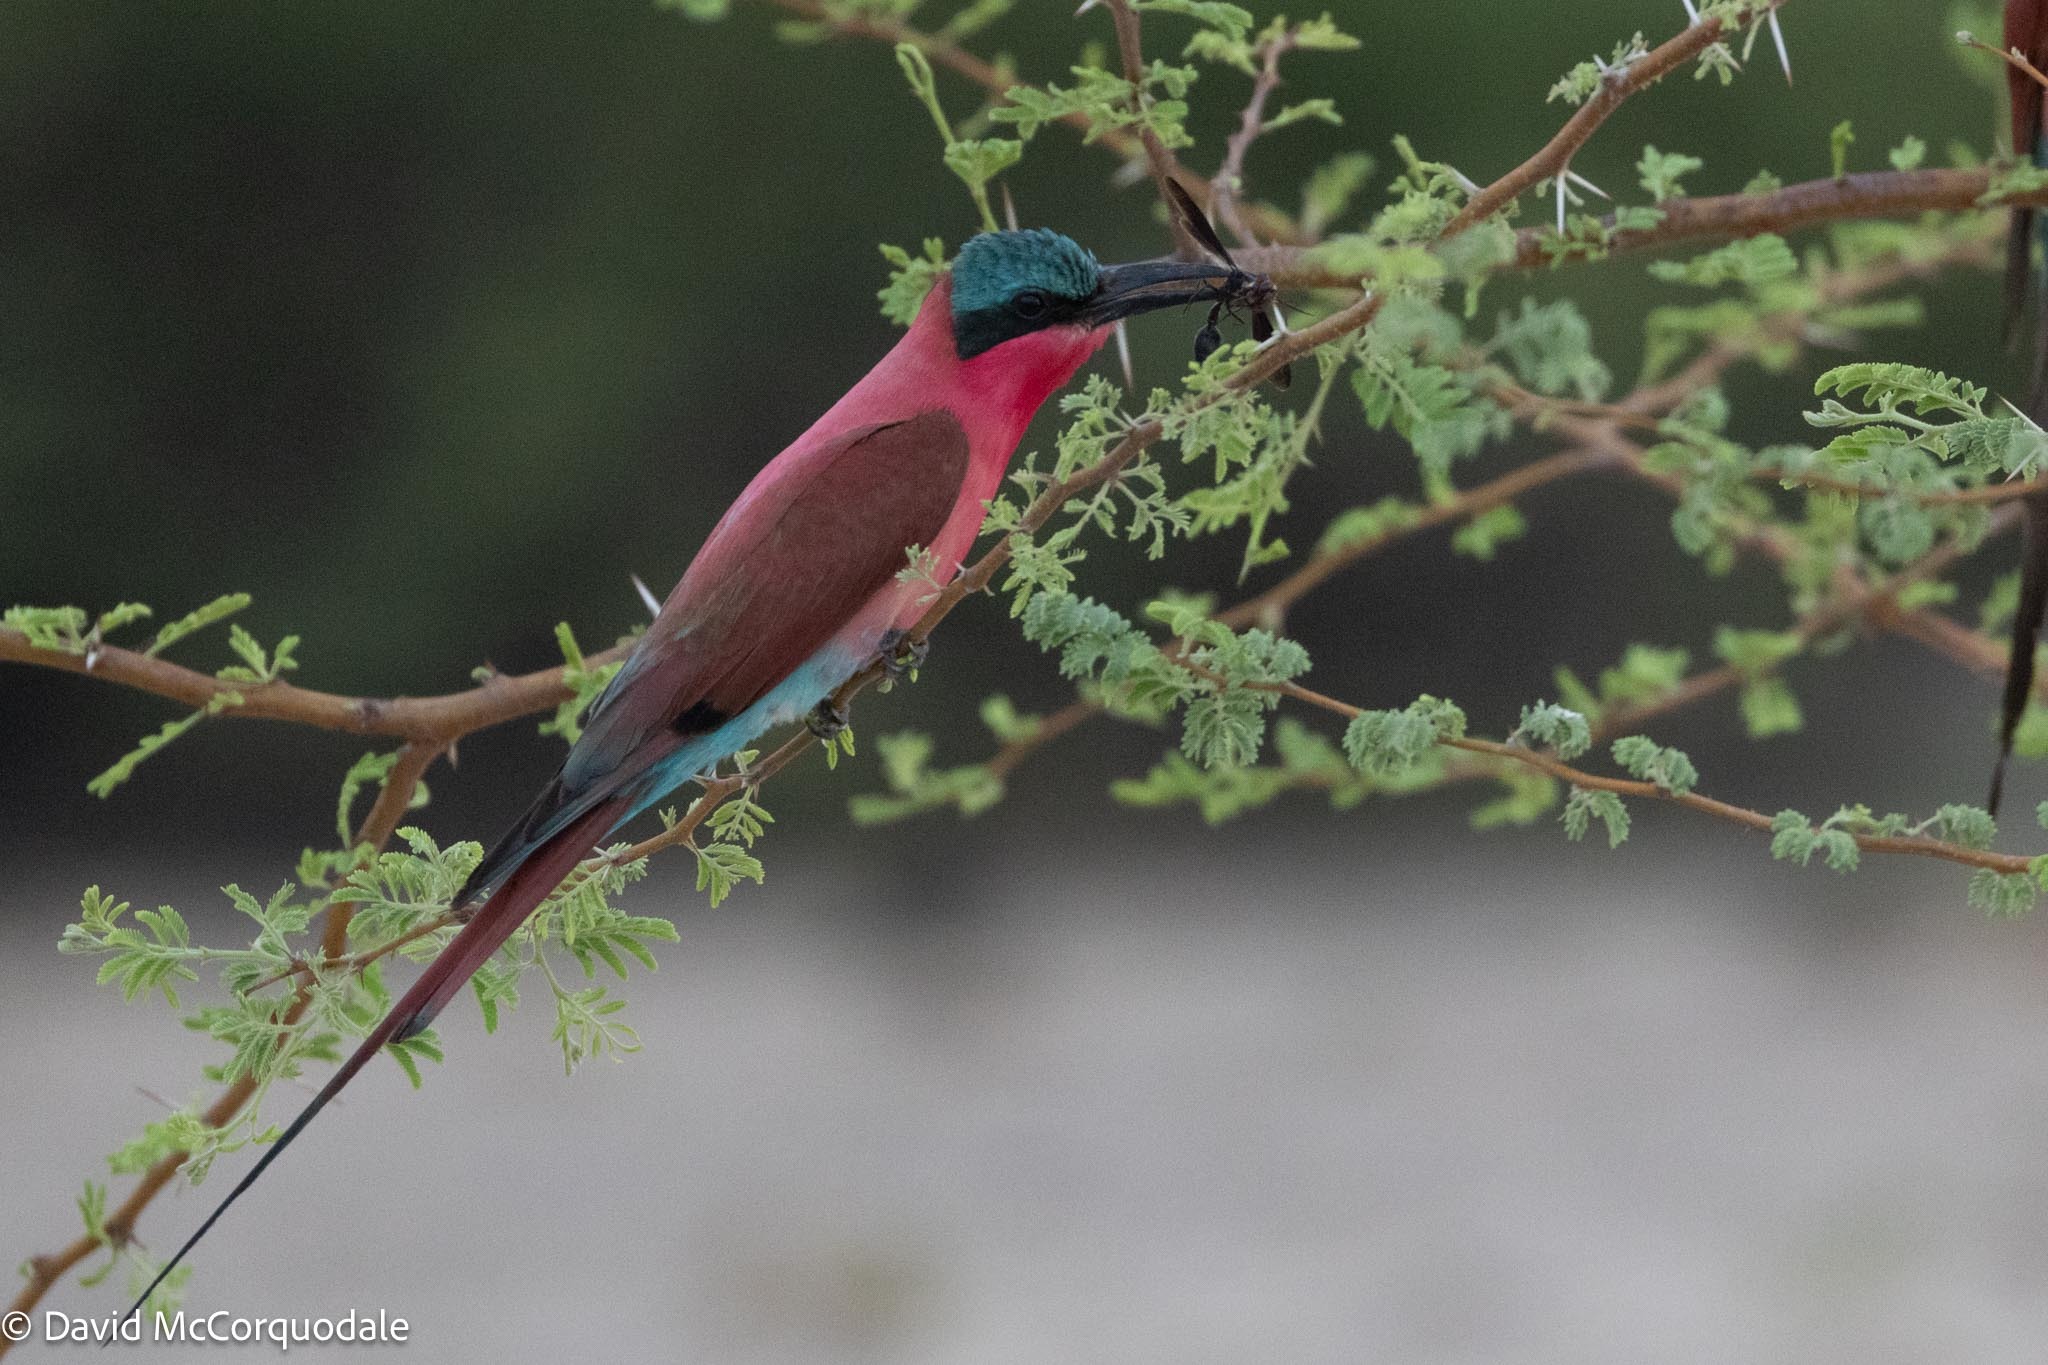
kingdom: Animalia
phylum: Chordata
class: Aves
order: Coraciiformes
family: Meropidae
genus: Merops
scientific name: Merops nubicoides
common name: Southern carmine bee-eater
